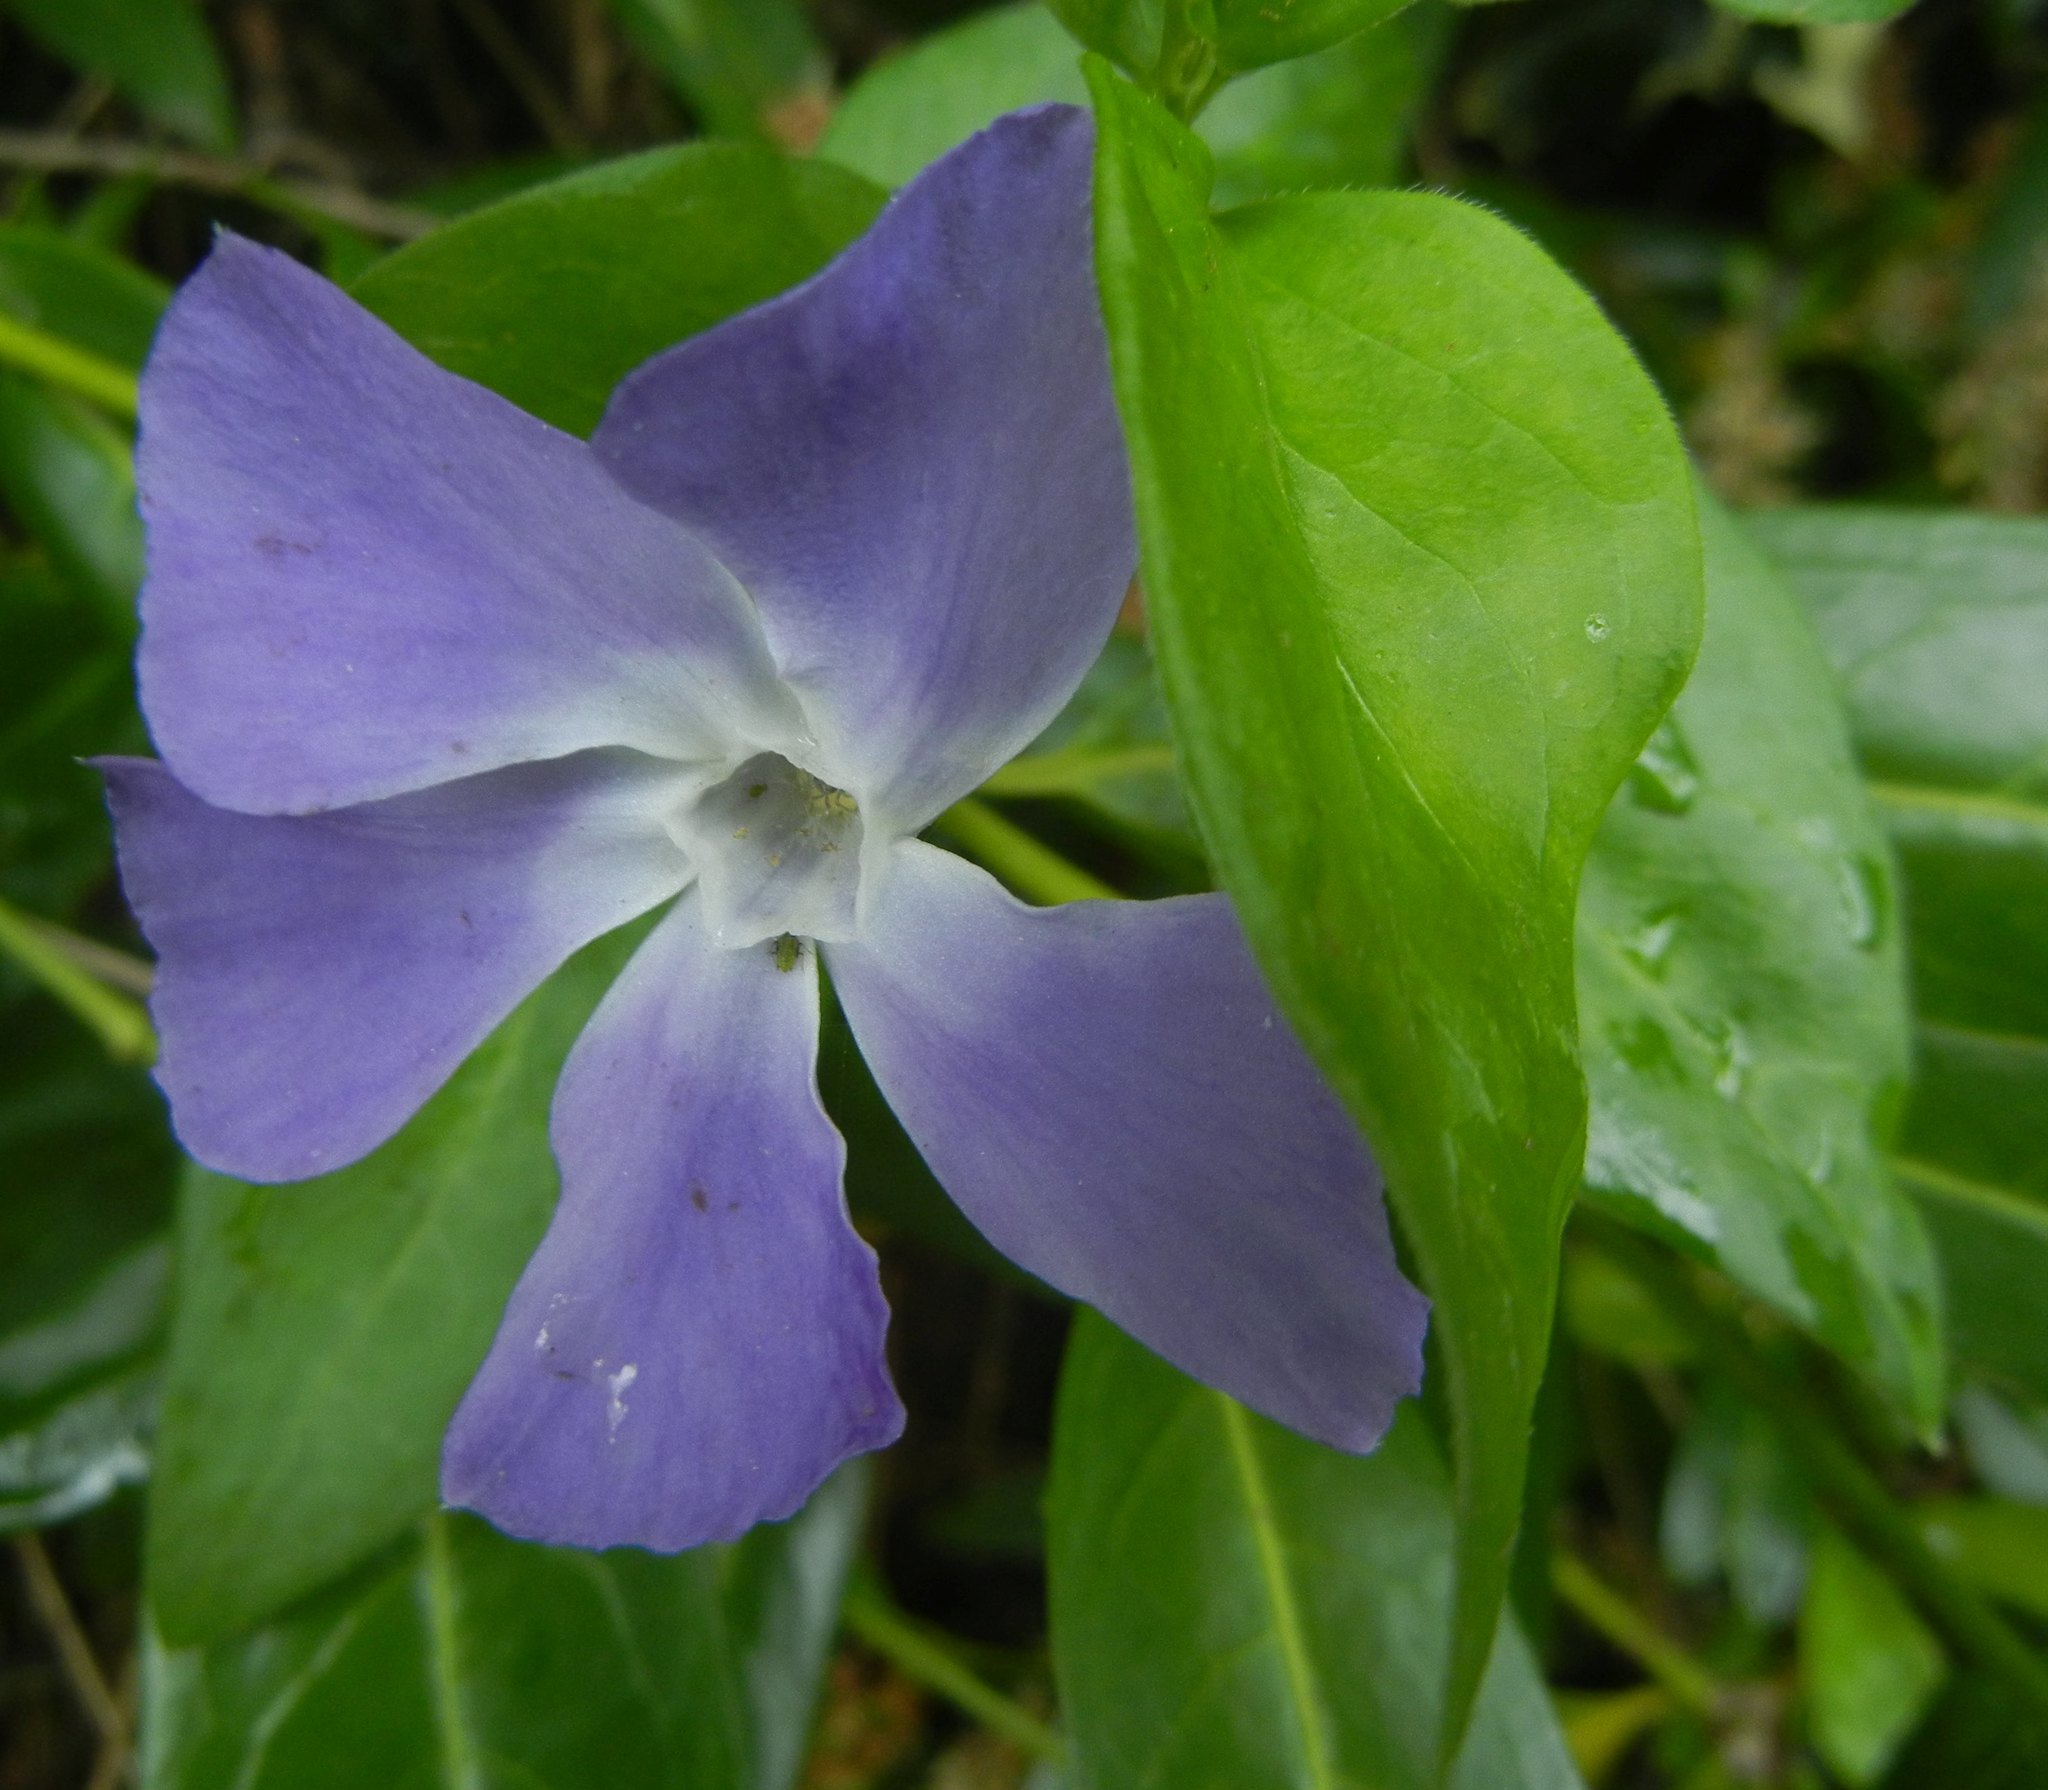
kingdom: Plantae
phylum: Tracheophyta
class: Magnoliopsida
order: Gentianales
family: Apocynaceae
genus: Vinca
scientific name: Vinca major
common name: Greater periwinkle
